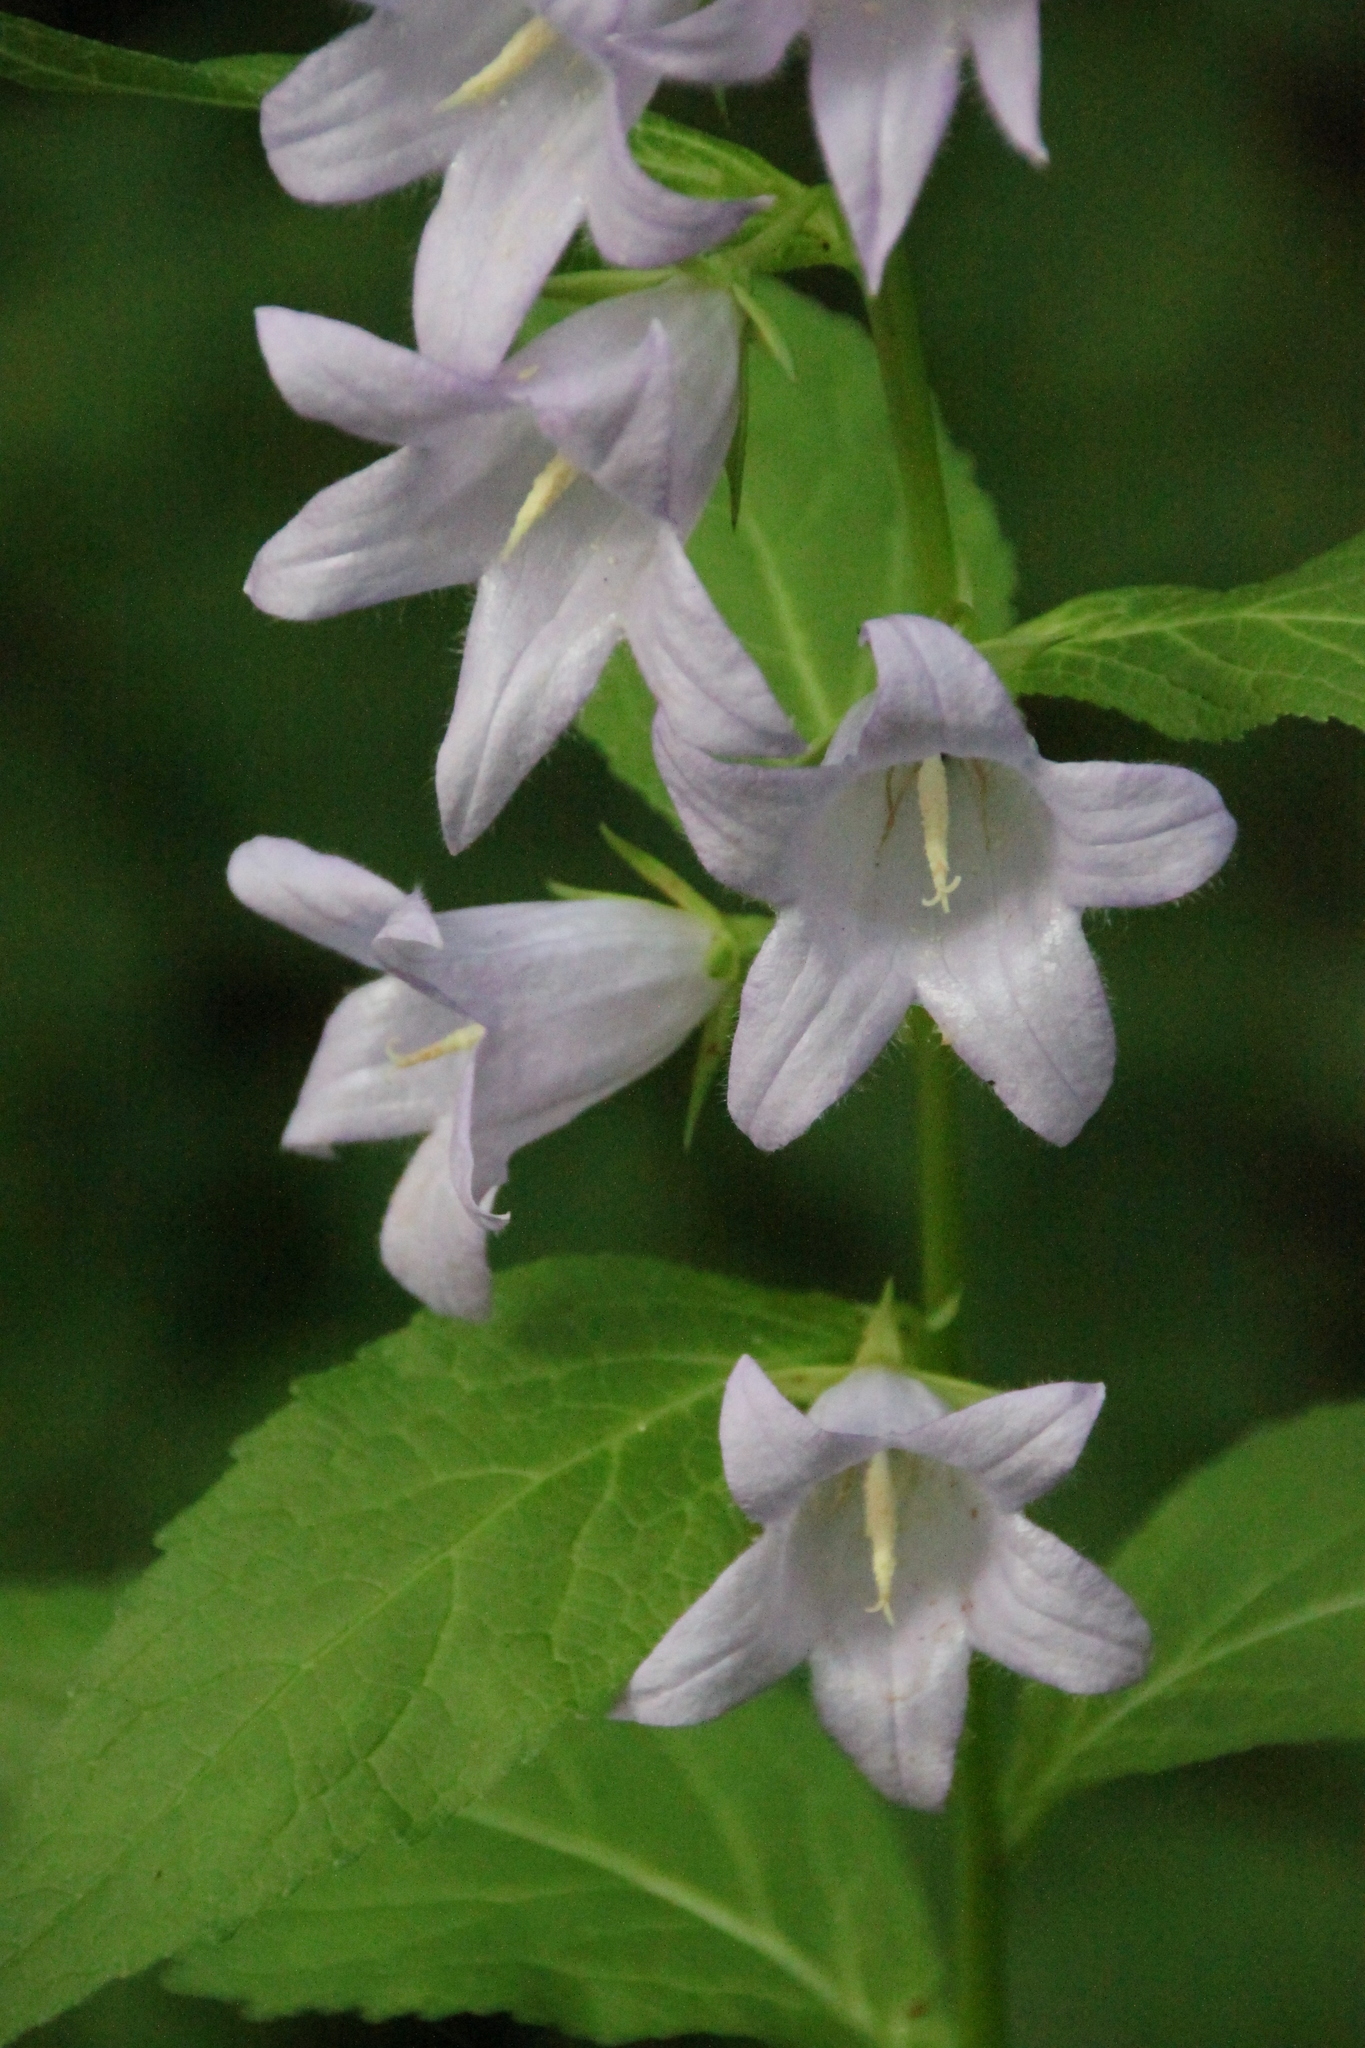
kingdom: Plantae
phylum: Tracheophyta
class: Magnoliopsida
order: Asterales
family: Campanulaceae
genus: Campanula
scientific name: Campanula latifolia
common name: Giant bellflower
